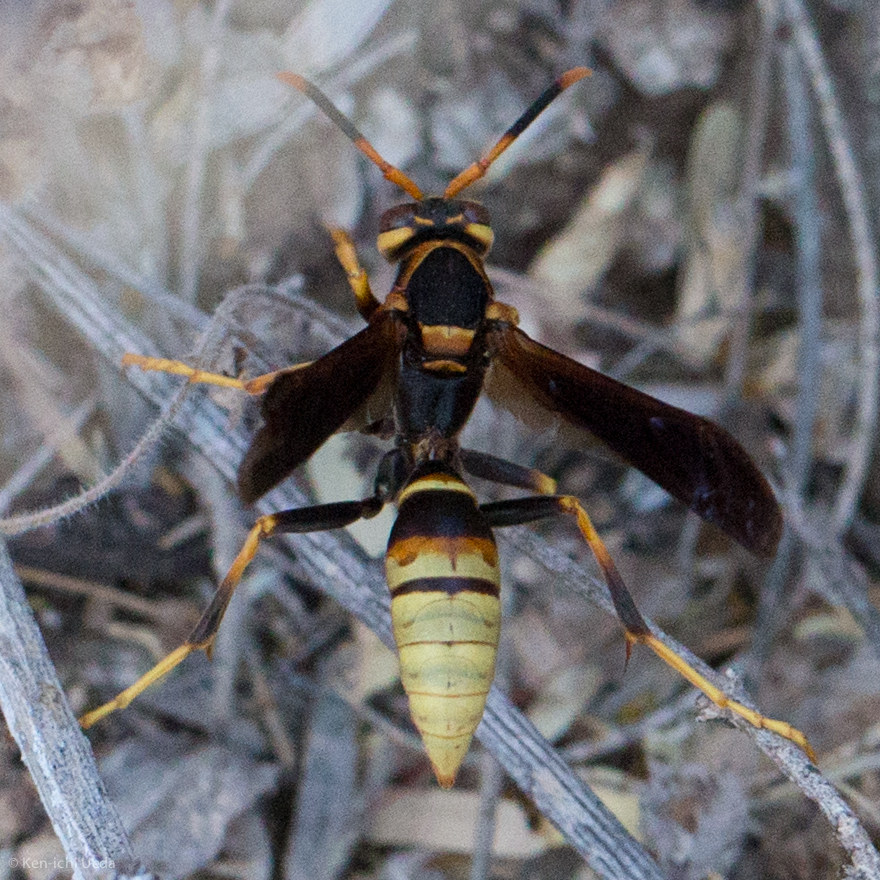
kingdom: Animalia
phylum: Arthropoda
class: Insecta
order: Hymenoptera
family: Eumenidae
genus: Polistes
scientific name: Polistes comanchus
